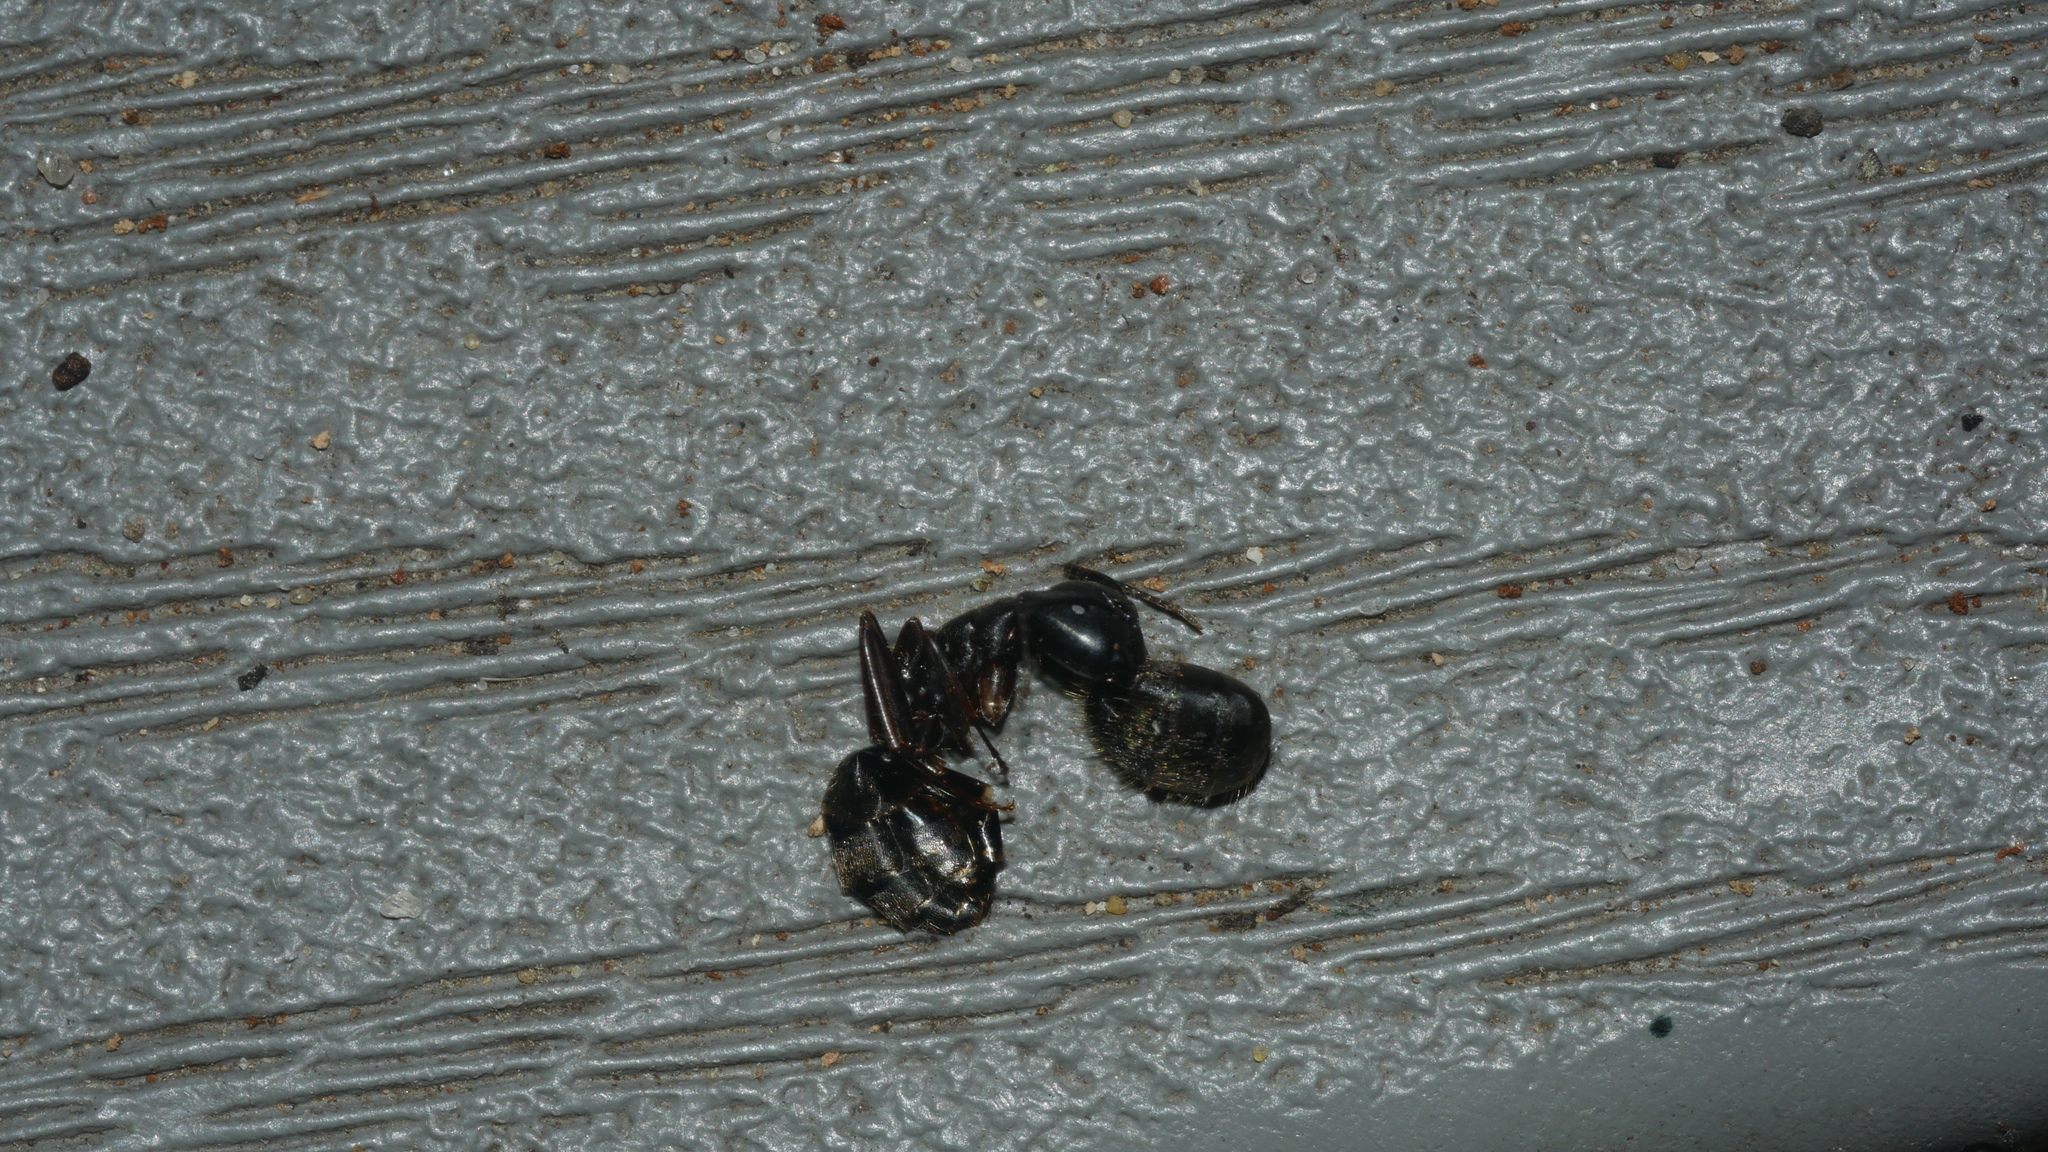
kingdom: Animalia
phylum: Arthropoda
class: Insecta
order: Hymenoptera
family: Formicidae
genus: Camponotus
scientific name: Camponotus pennsylvanicus
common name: Black carpenter ant
